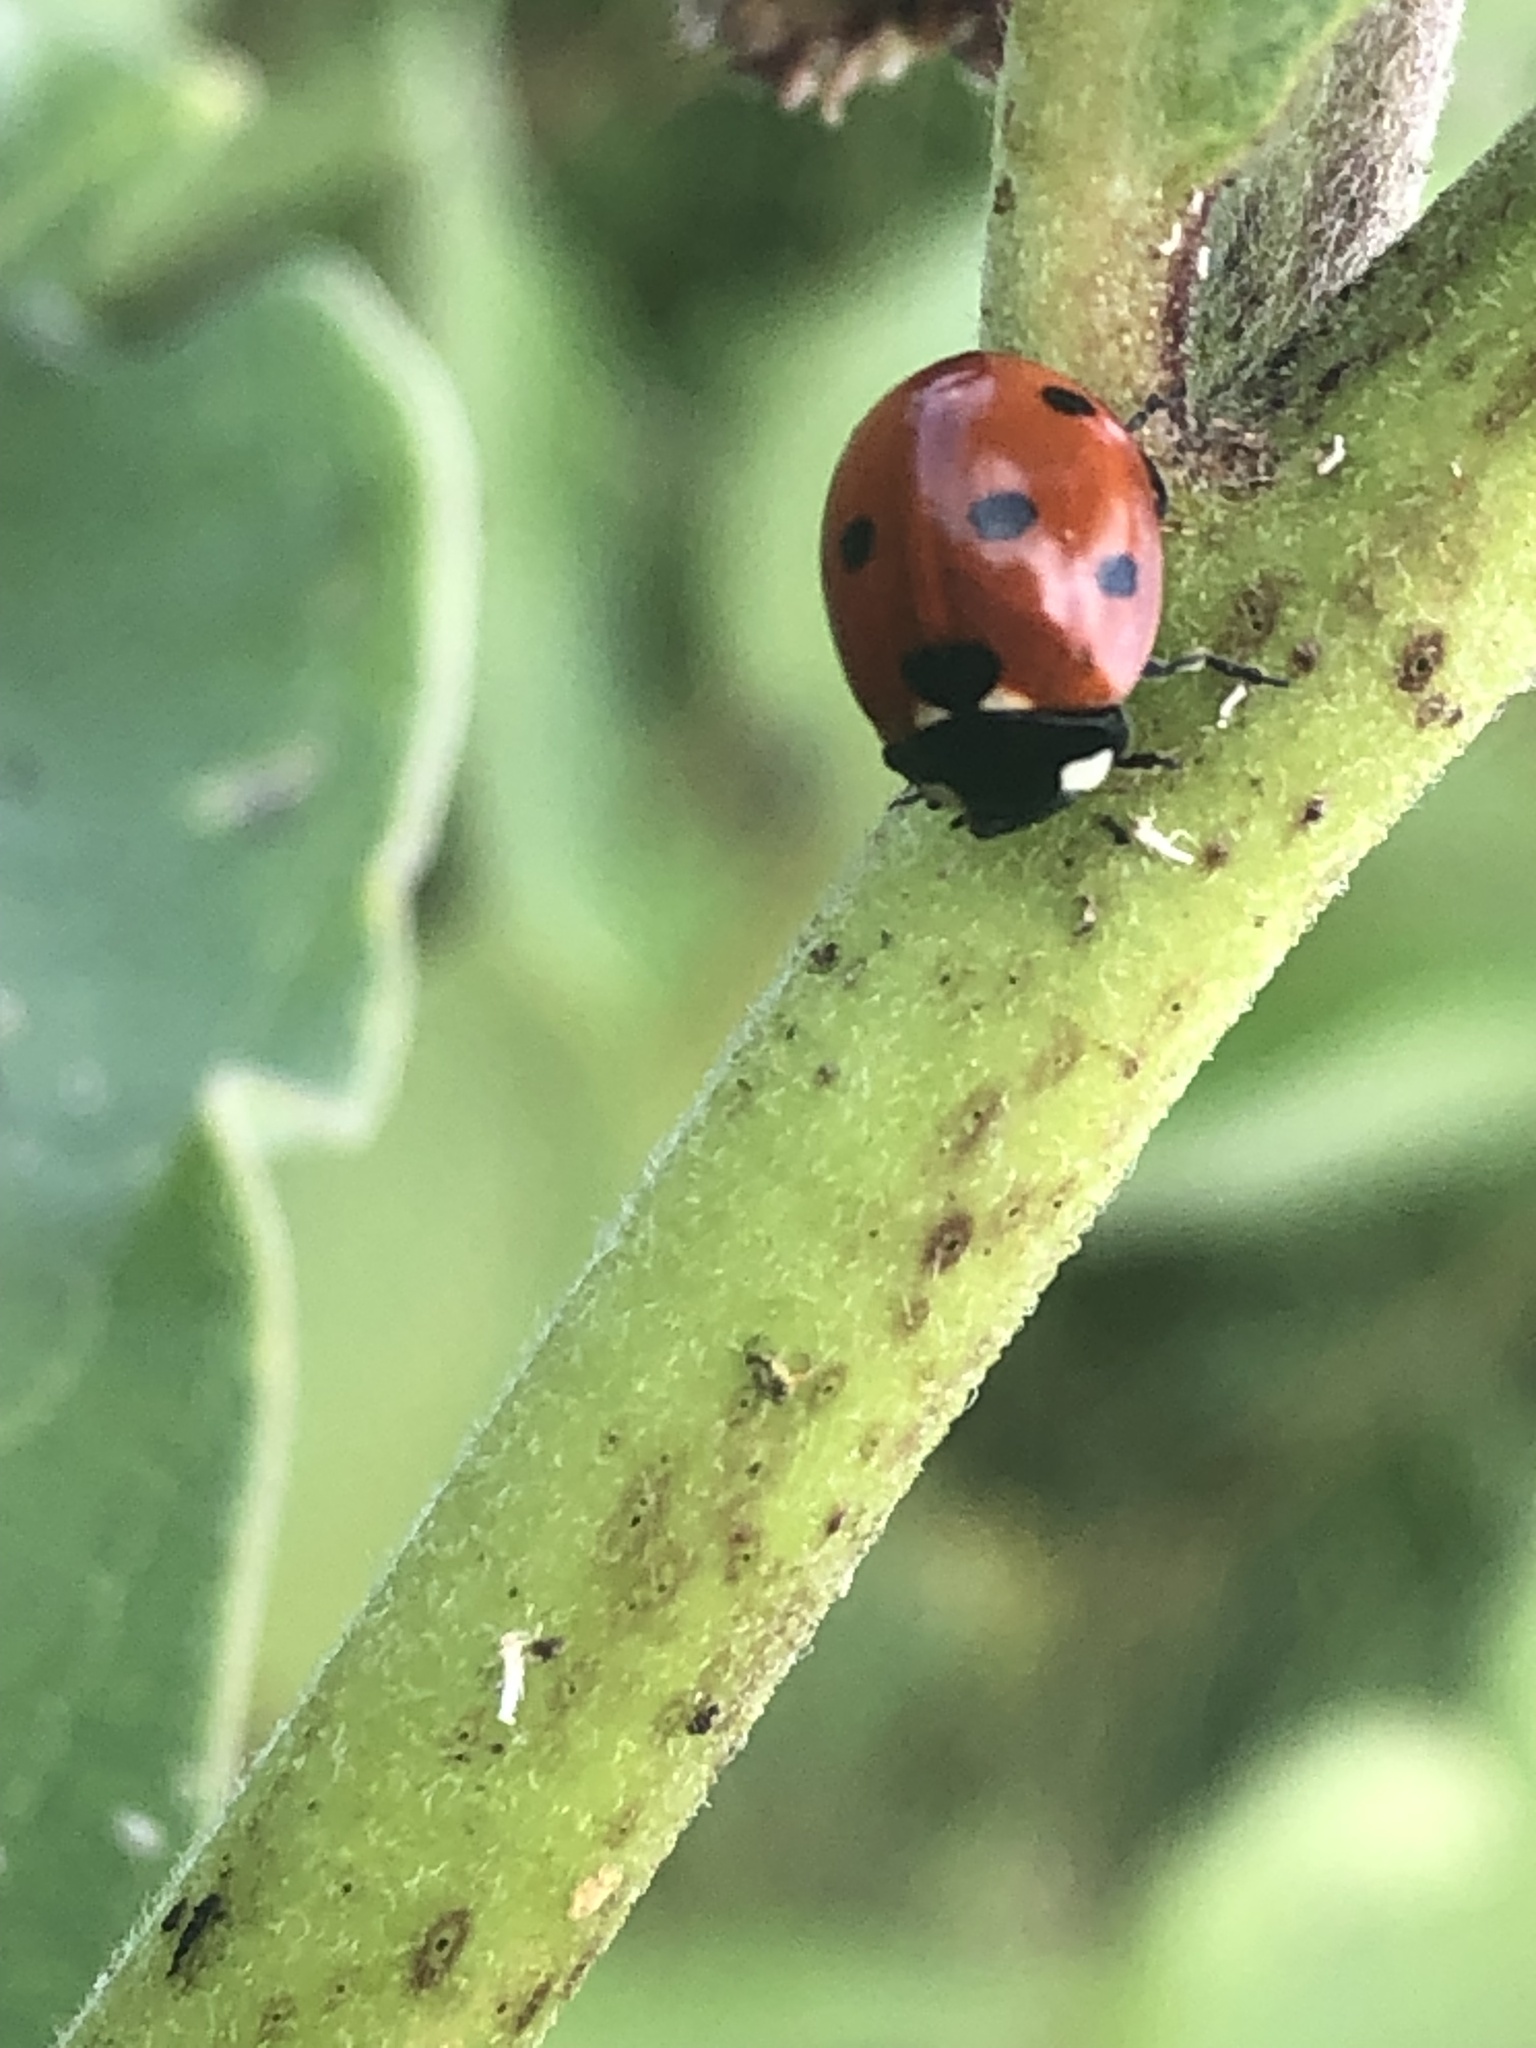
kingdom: Animalia
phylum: Arthropoda
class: Insecta
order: Coleoptera
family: Coccinellidae
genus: Coccinella
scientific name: Coccinella septempunctata
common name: Sevenspotted lady beetle
